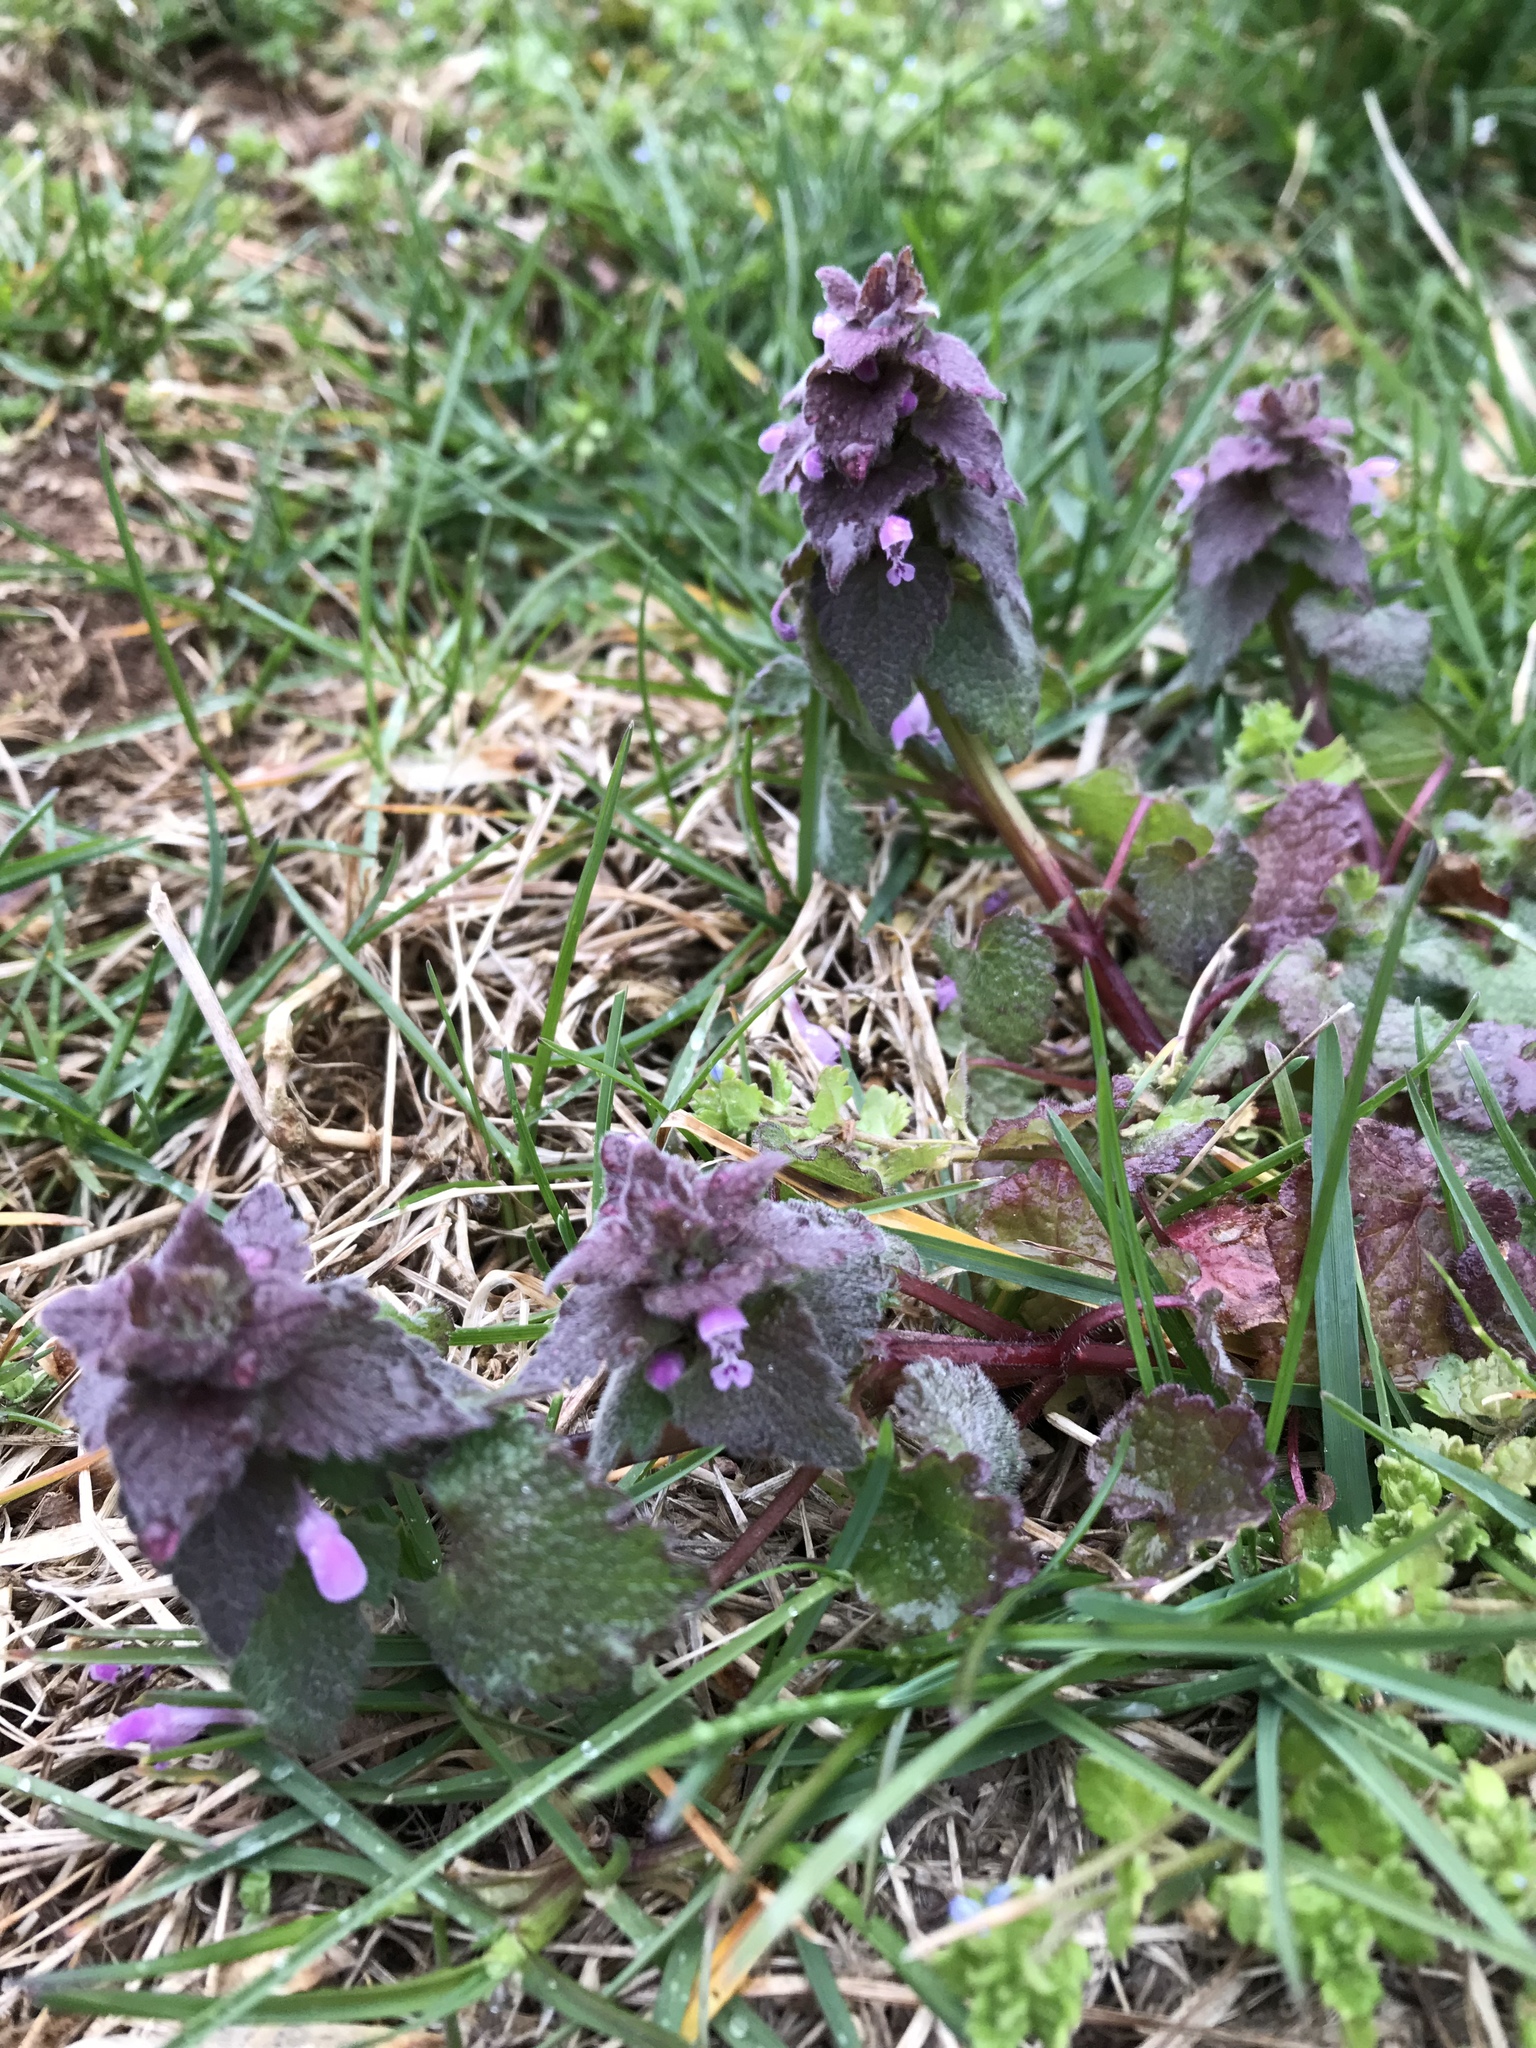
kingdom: Plantae
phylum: Tracheophyta
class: Magnoliopsida
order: Lamiales
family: Lamiaceae
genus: Lamium
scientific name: Lamium purpureum
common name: Red dead-nettle
